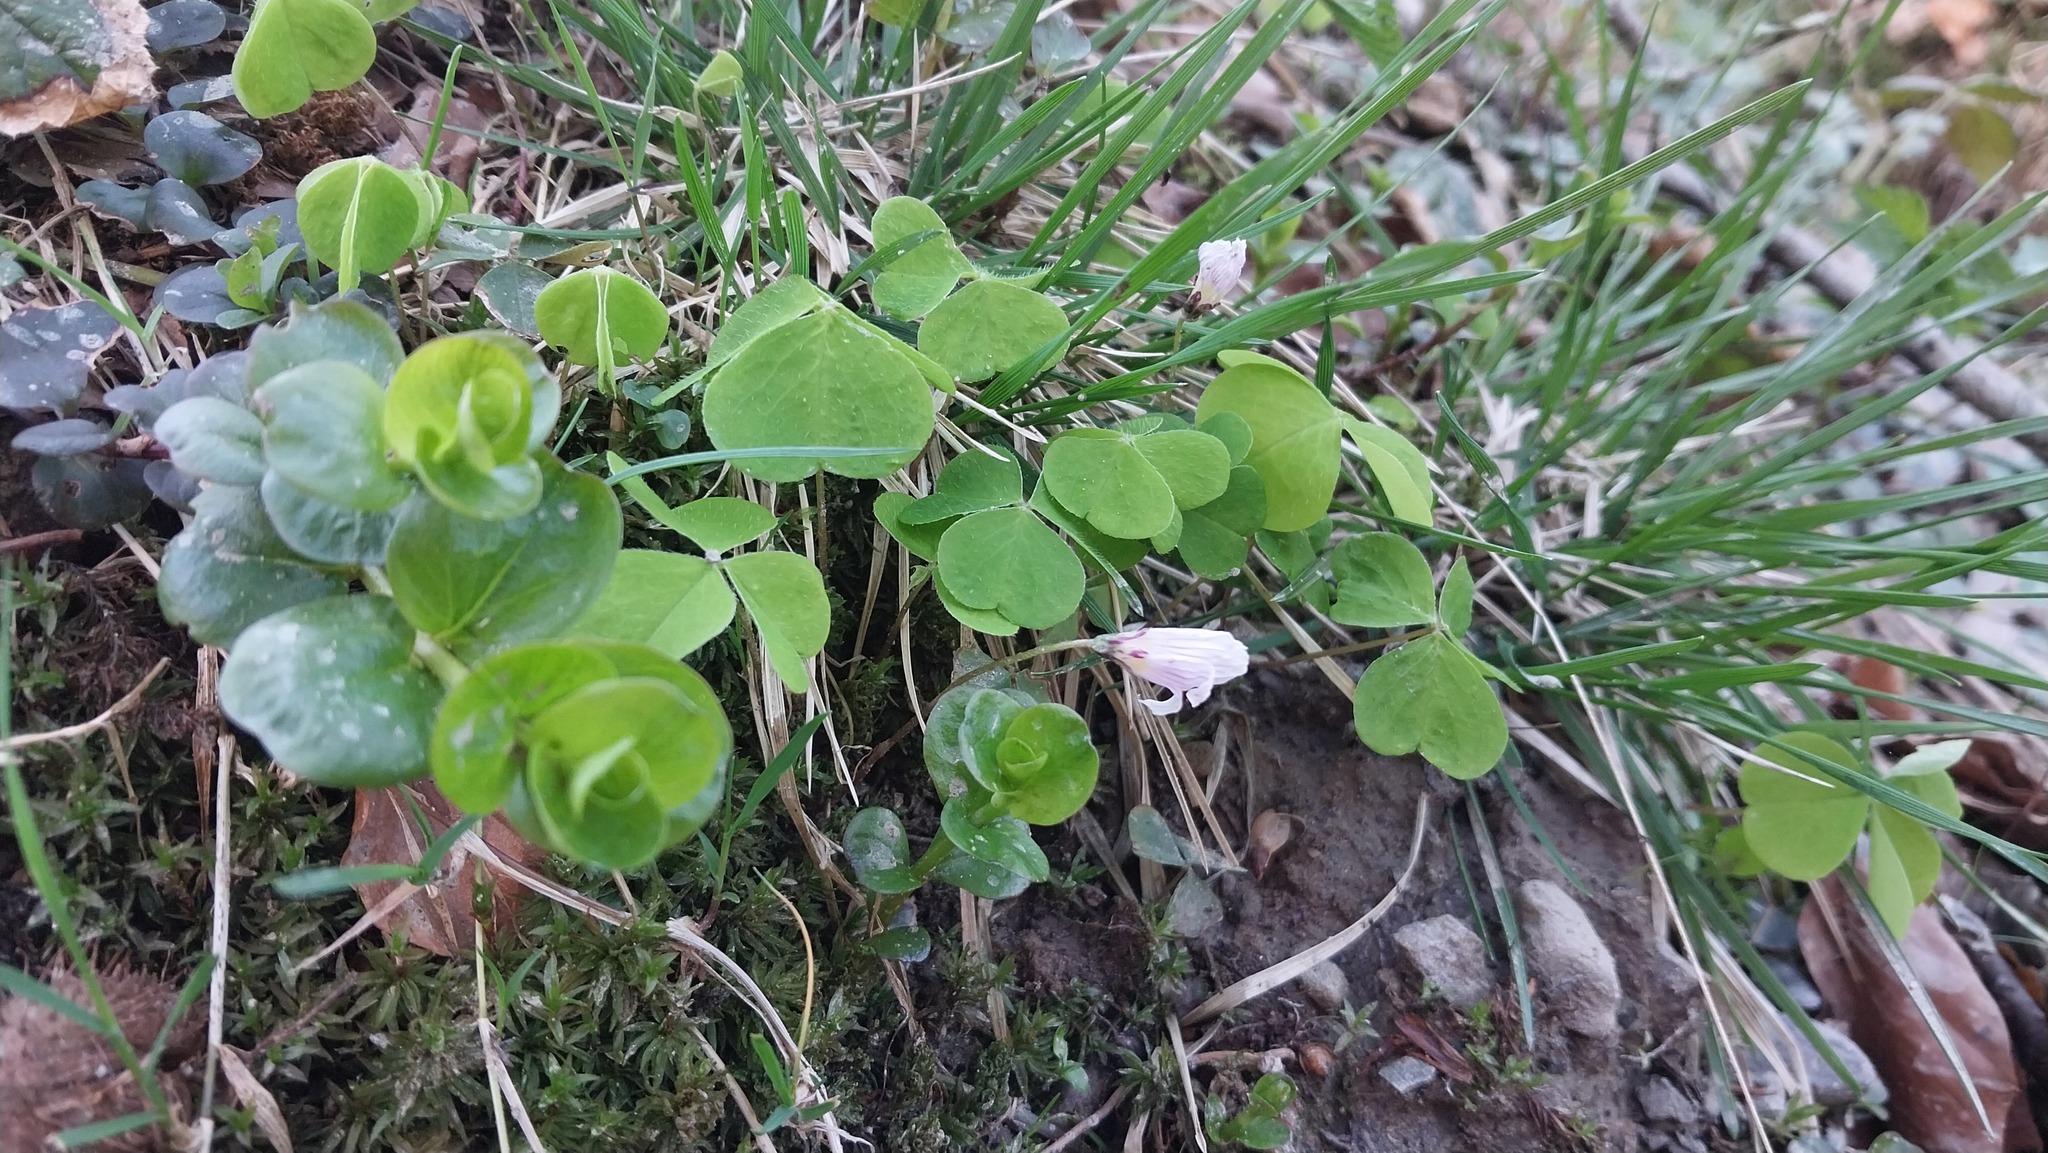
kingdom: Plantae
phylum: Tracheophyta
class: Magnoliopsida
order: Oxalidales
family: Oxalidaceae
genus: Oxalis
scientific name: Oxalis acetosella
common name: Wood-sorrel
